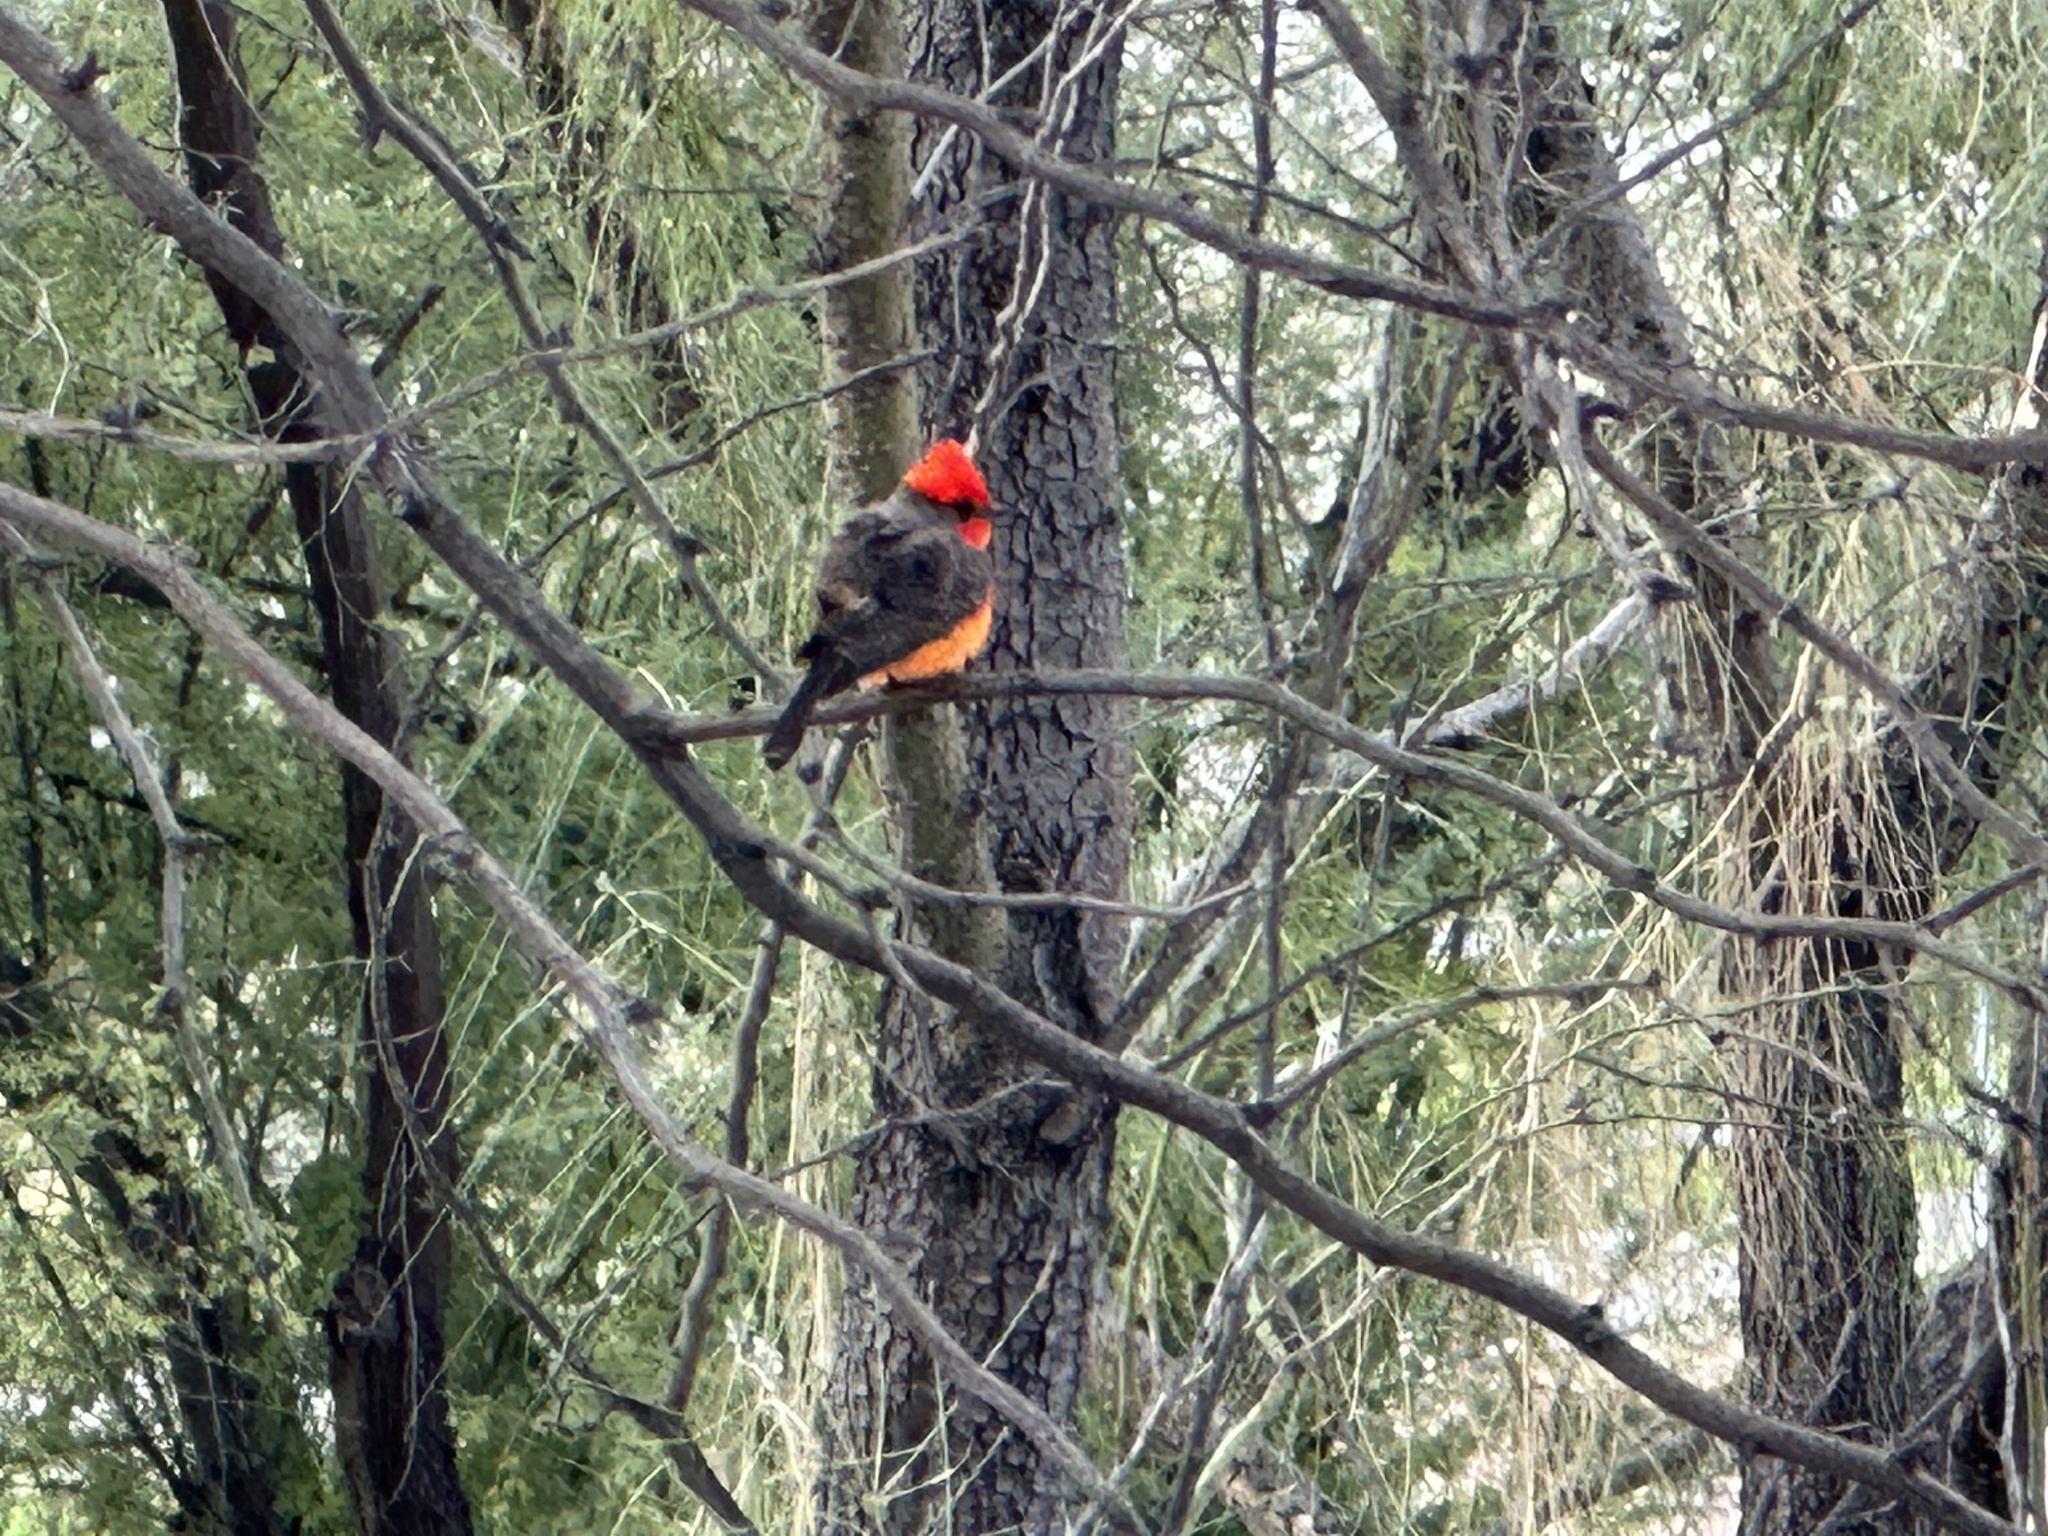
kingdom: Animalia
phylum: Chordata
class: Aves
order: Passeriformes
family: Tyrannidae
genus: Pyrocephalus
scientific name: Pyrocephalus rubinus
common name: Vermilion flycatcher
